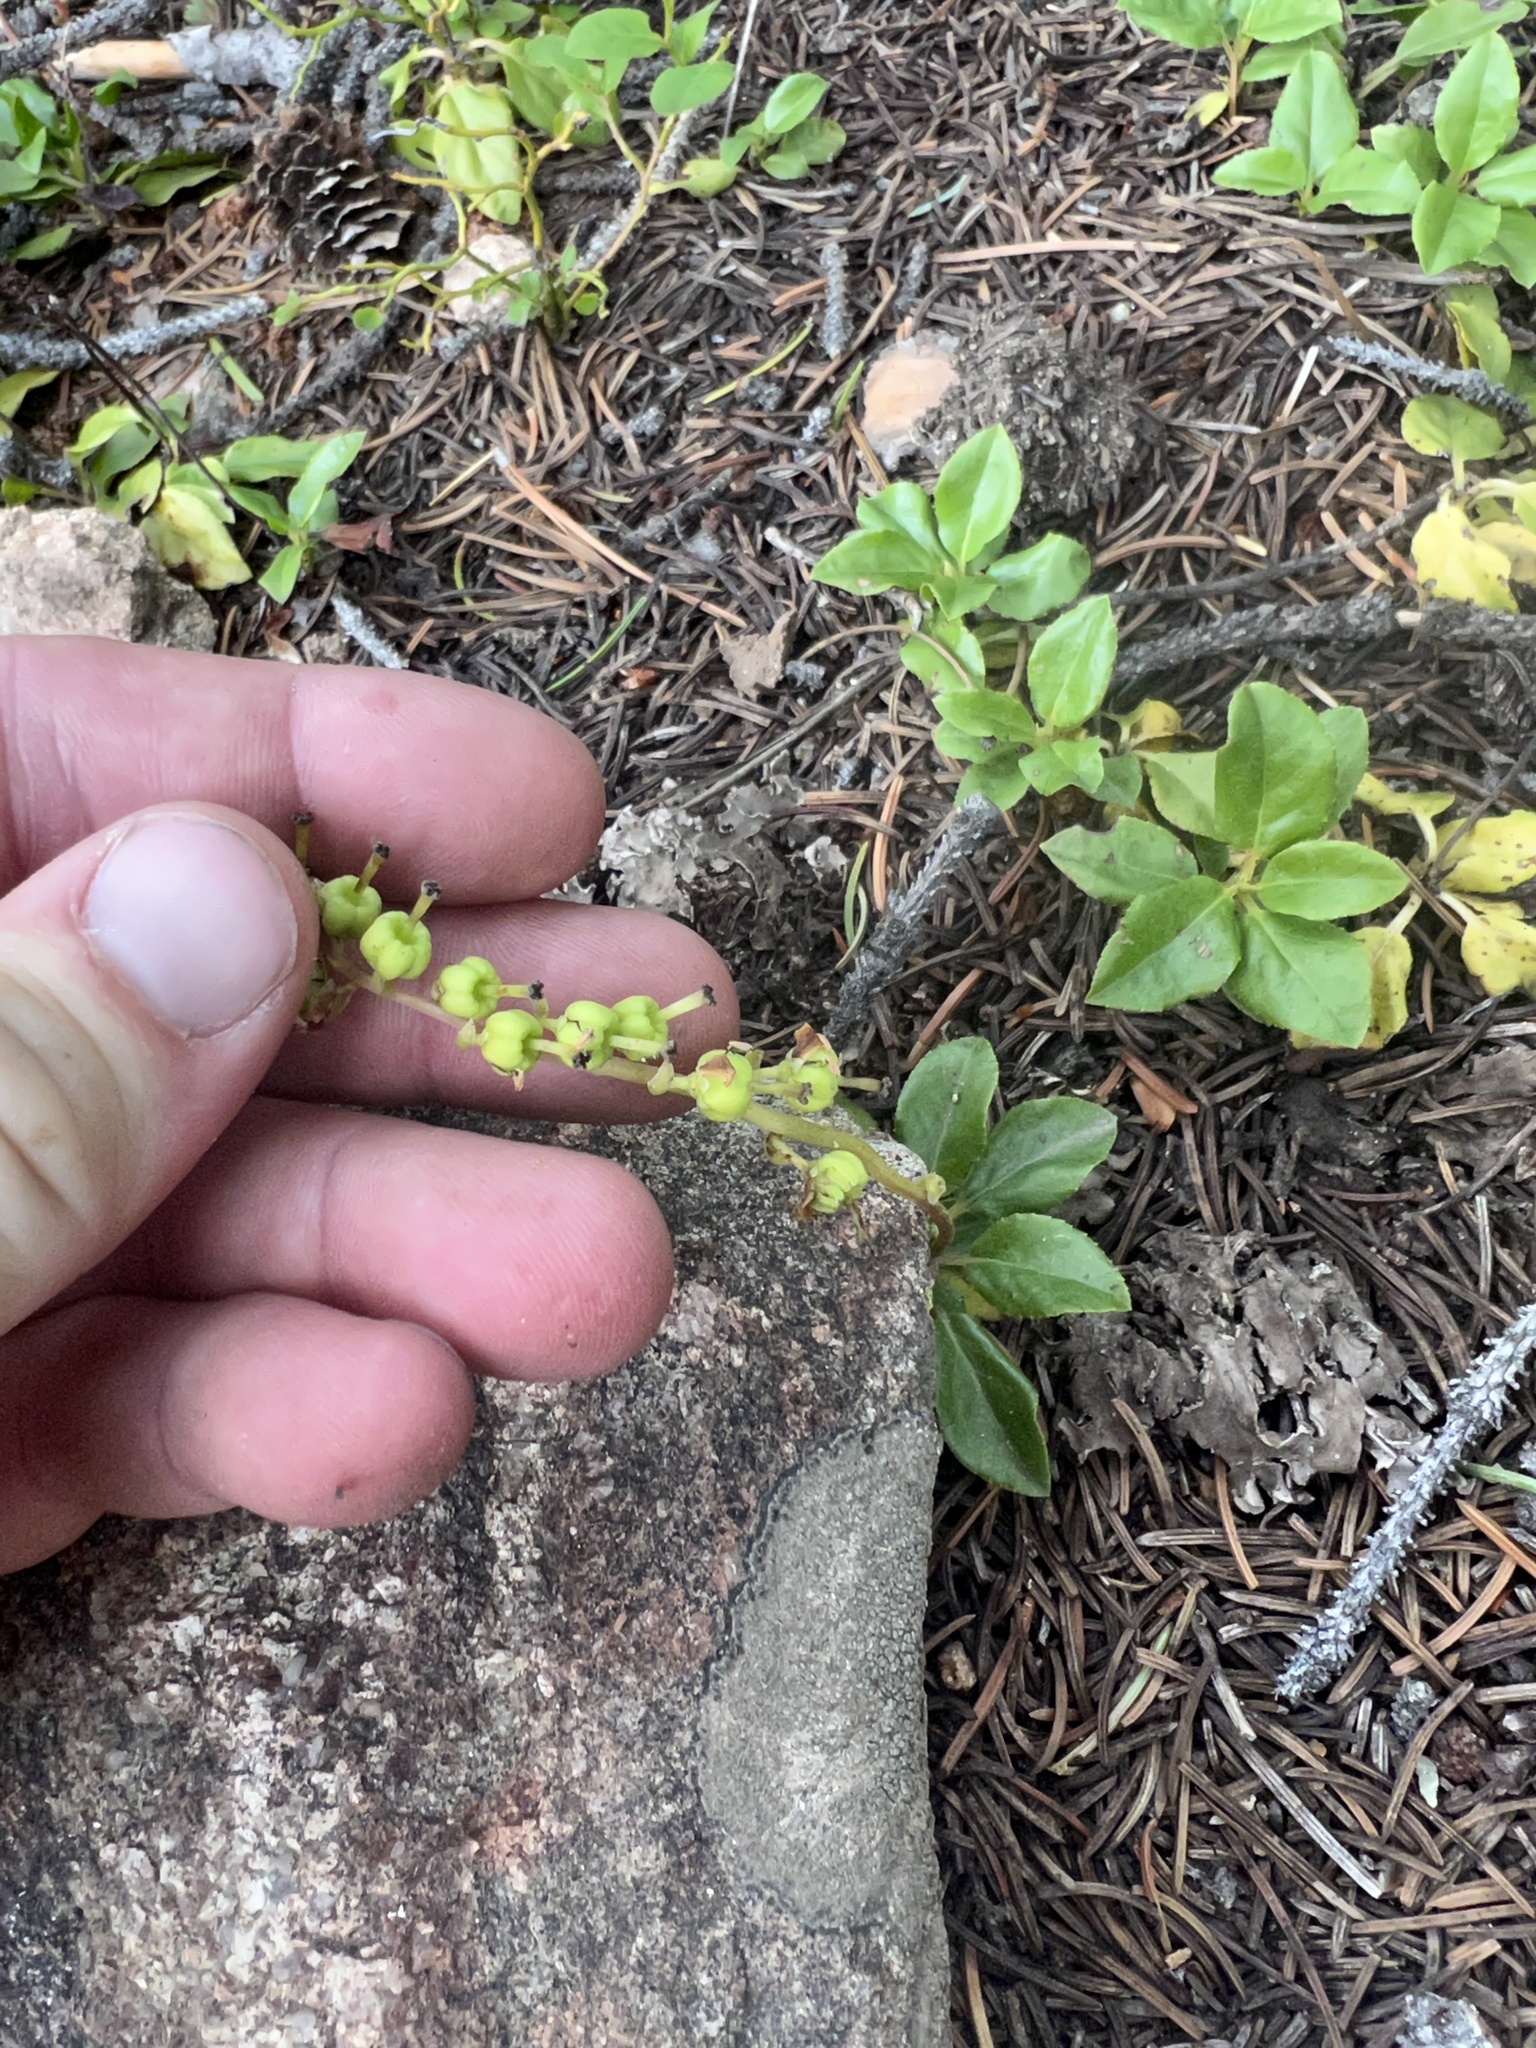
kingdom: Plantae
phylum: Tracheophyta
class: Magnoliopsida
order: Ericales
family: Ericaceae
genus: Orthilia
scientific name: Orthilia secunda
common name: One-sided orthilia
